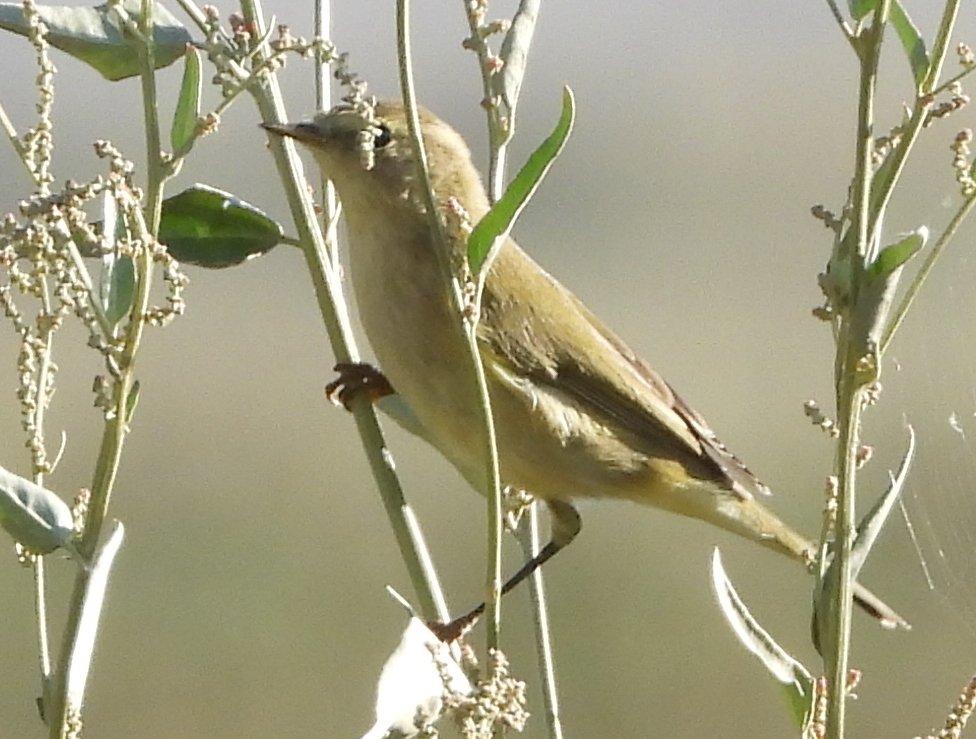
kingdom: Animalia
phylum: Chordata
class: Aves
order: Passeriformes
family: Phylloscopidae
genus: Phylloscopus
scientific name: Phylloscopus collybita
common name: Common chiffchaff
